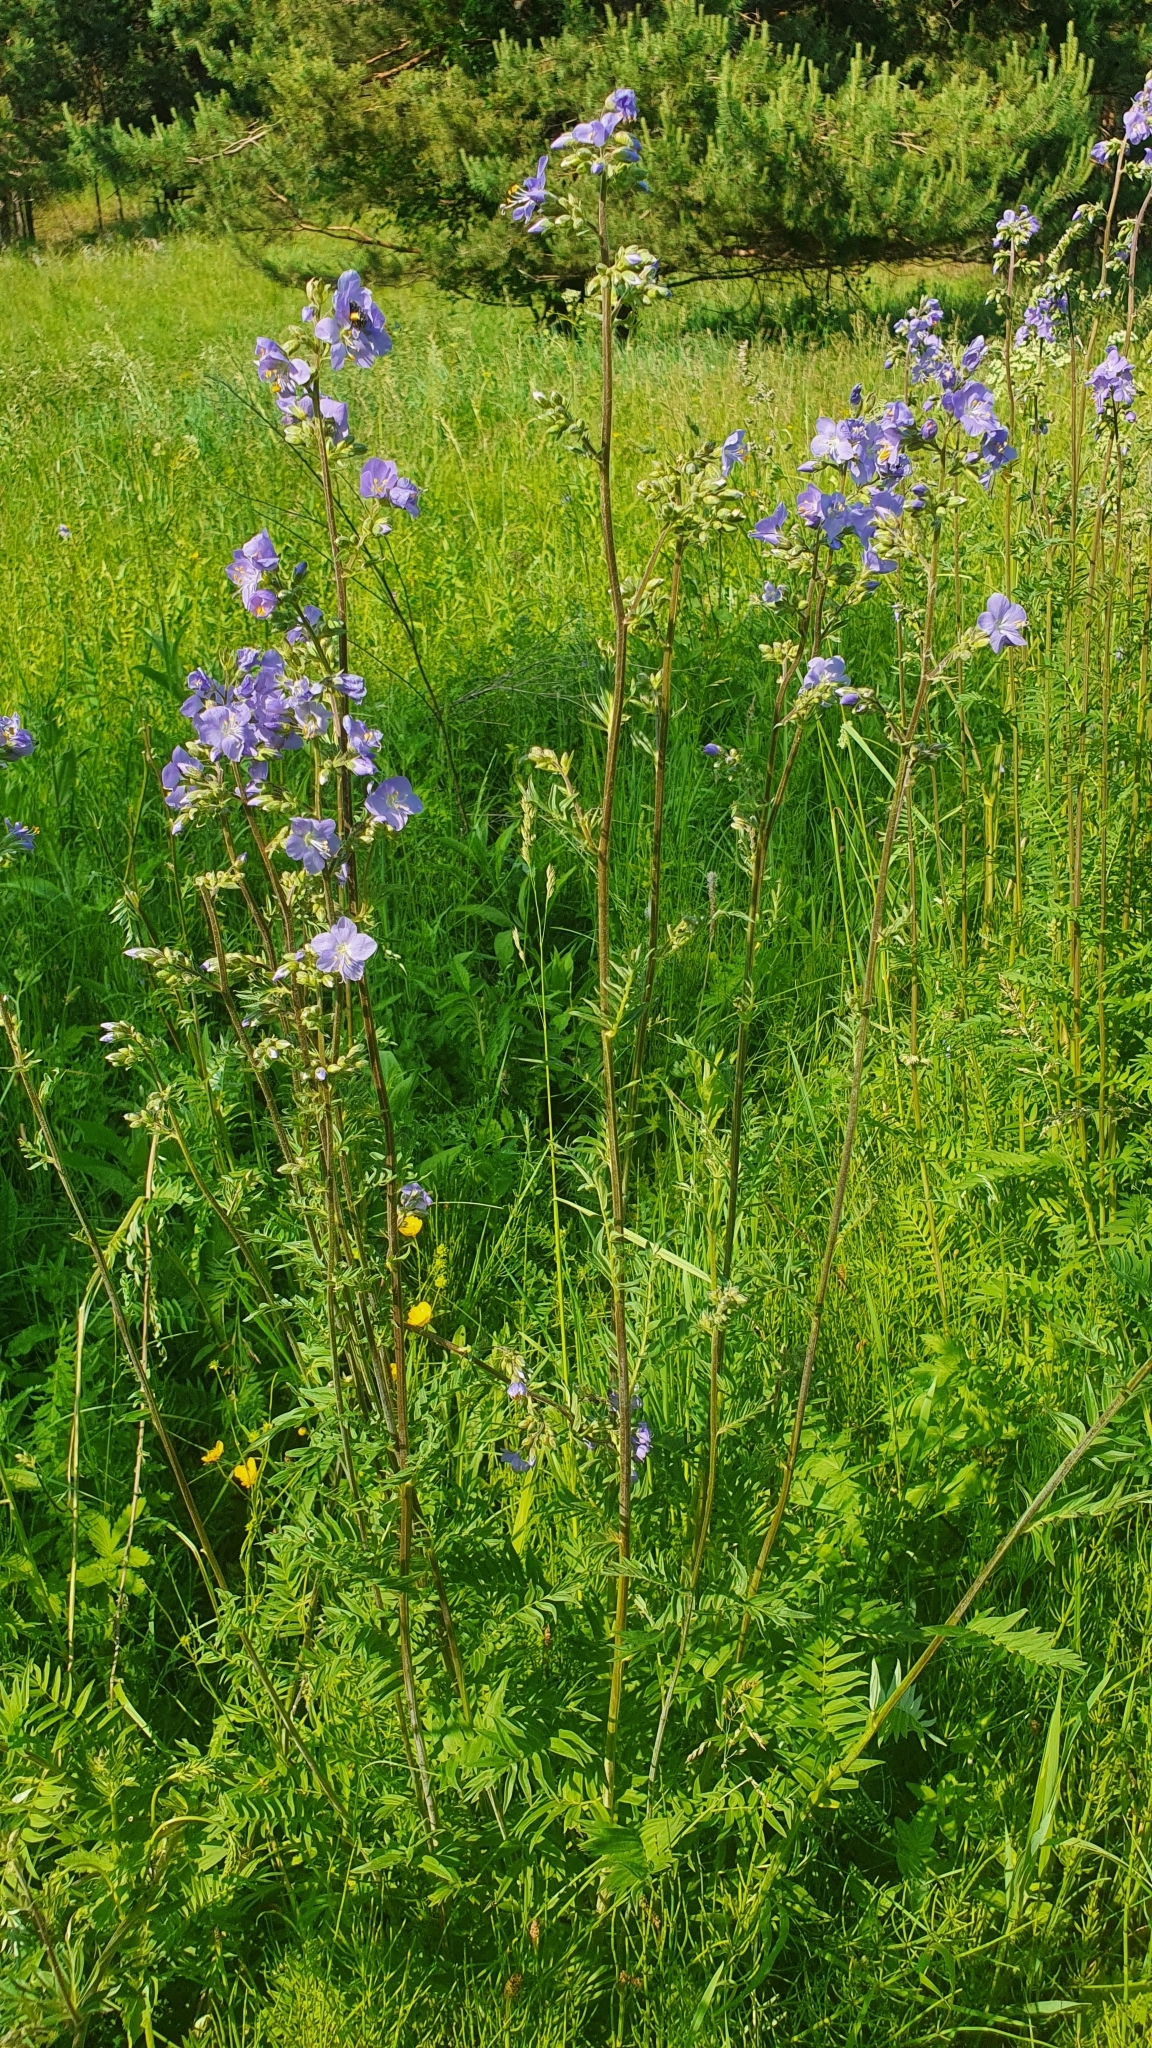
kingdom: Plantae
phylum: Tracheophyta
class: Magnoliopsida
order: Ericales
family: Polemoniaceae
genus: Polemonium
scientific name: Polemonium caeruleum
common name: Jacob's-ladder
